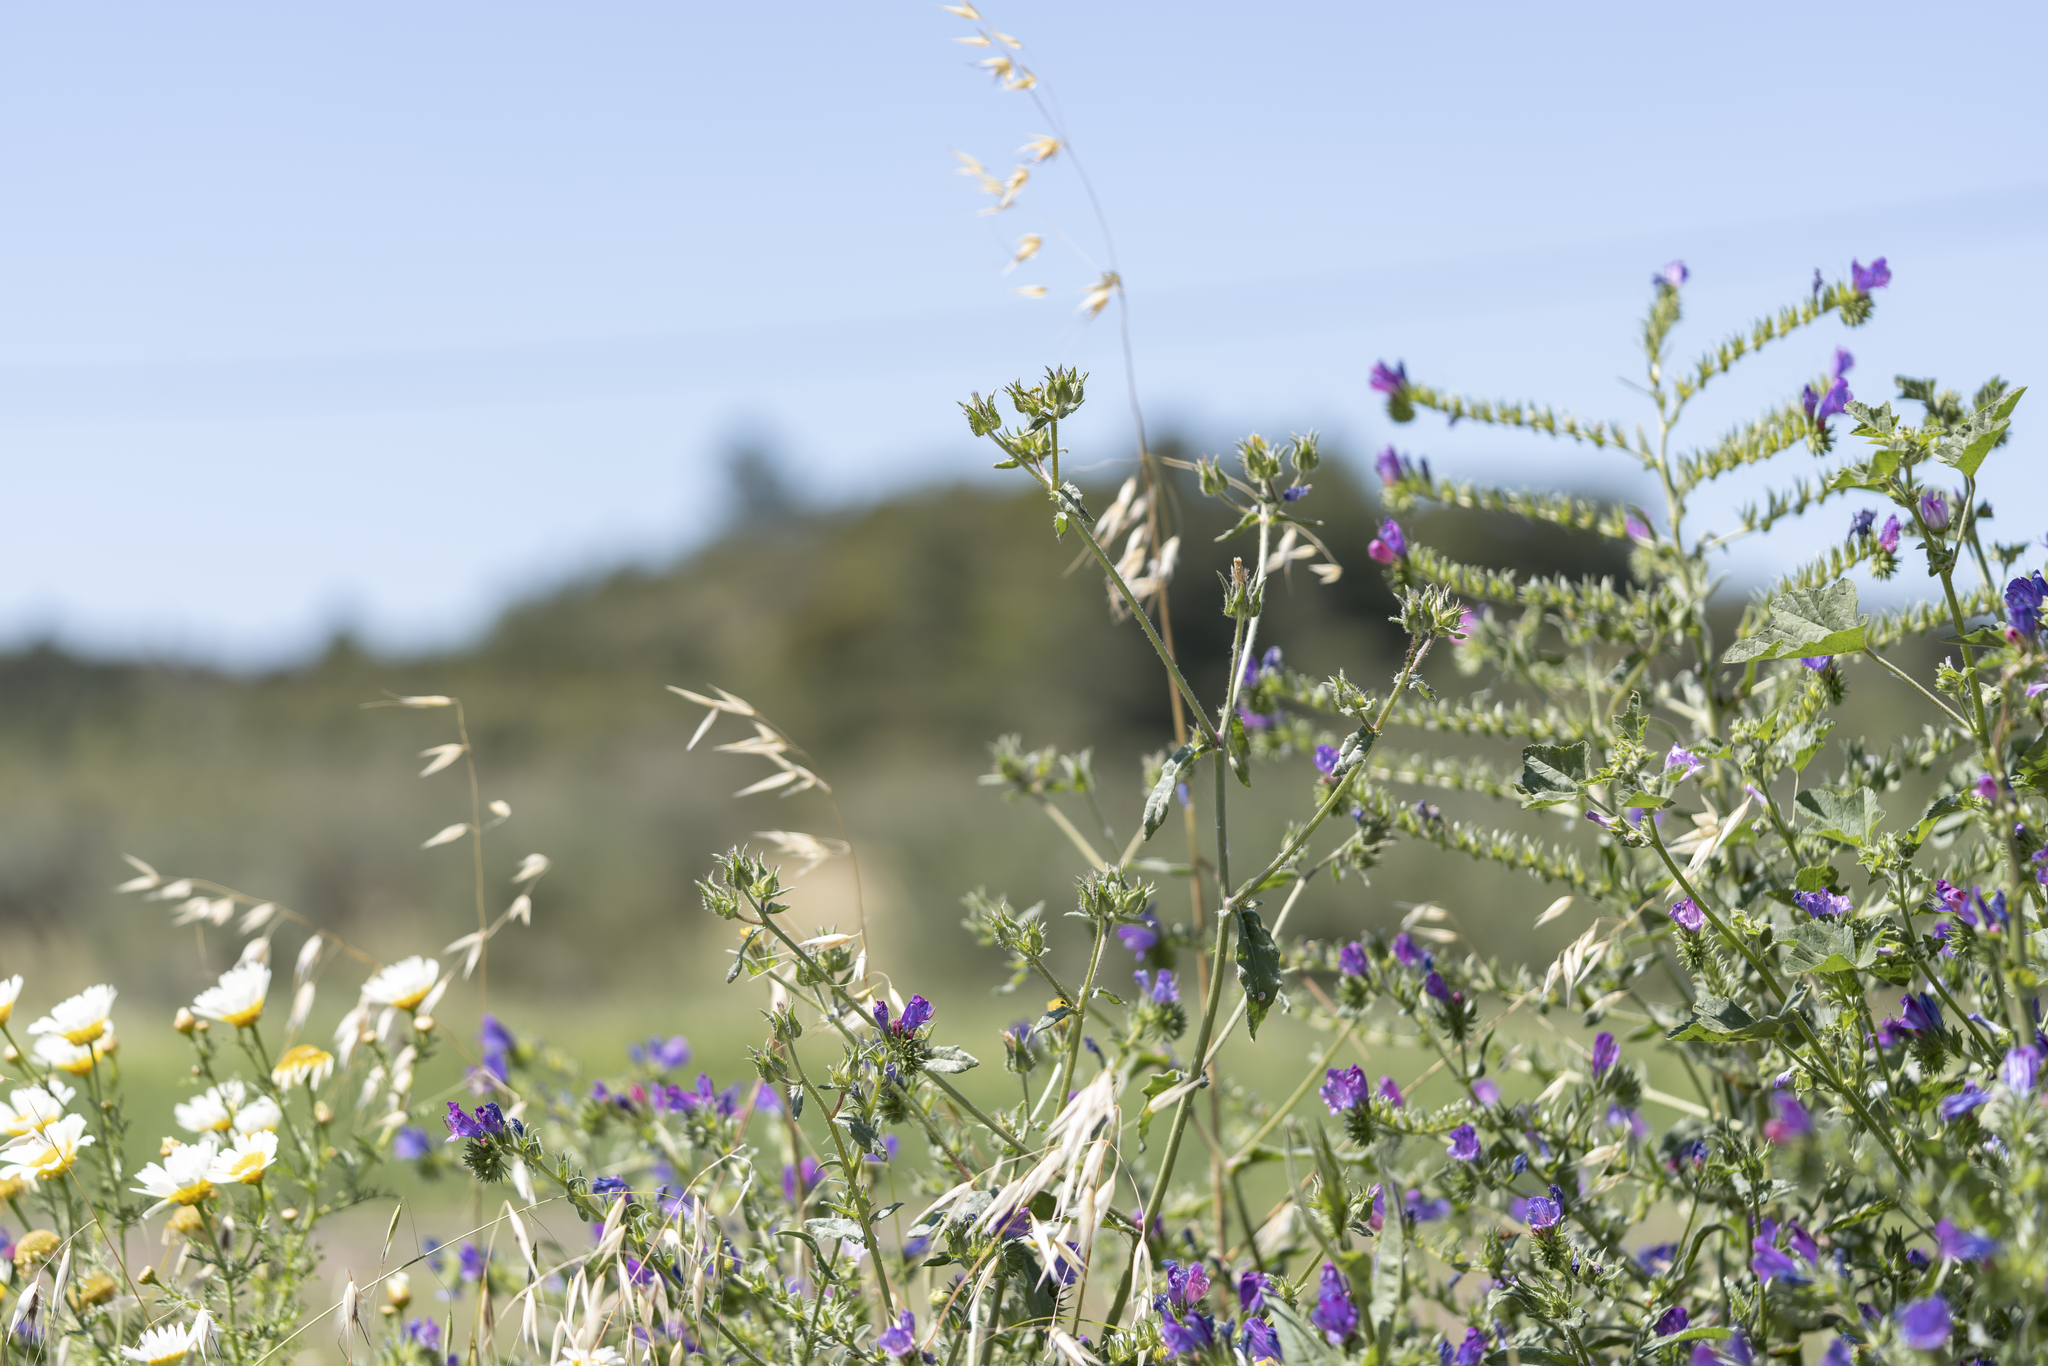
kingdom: Plantae
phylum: Tracheophyta
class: Magnoliopsida
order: Asterales
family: Asteraceae
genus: Helminthotheca
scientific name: Helminthotheca echioides
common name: Ox-tongue
